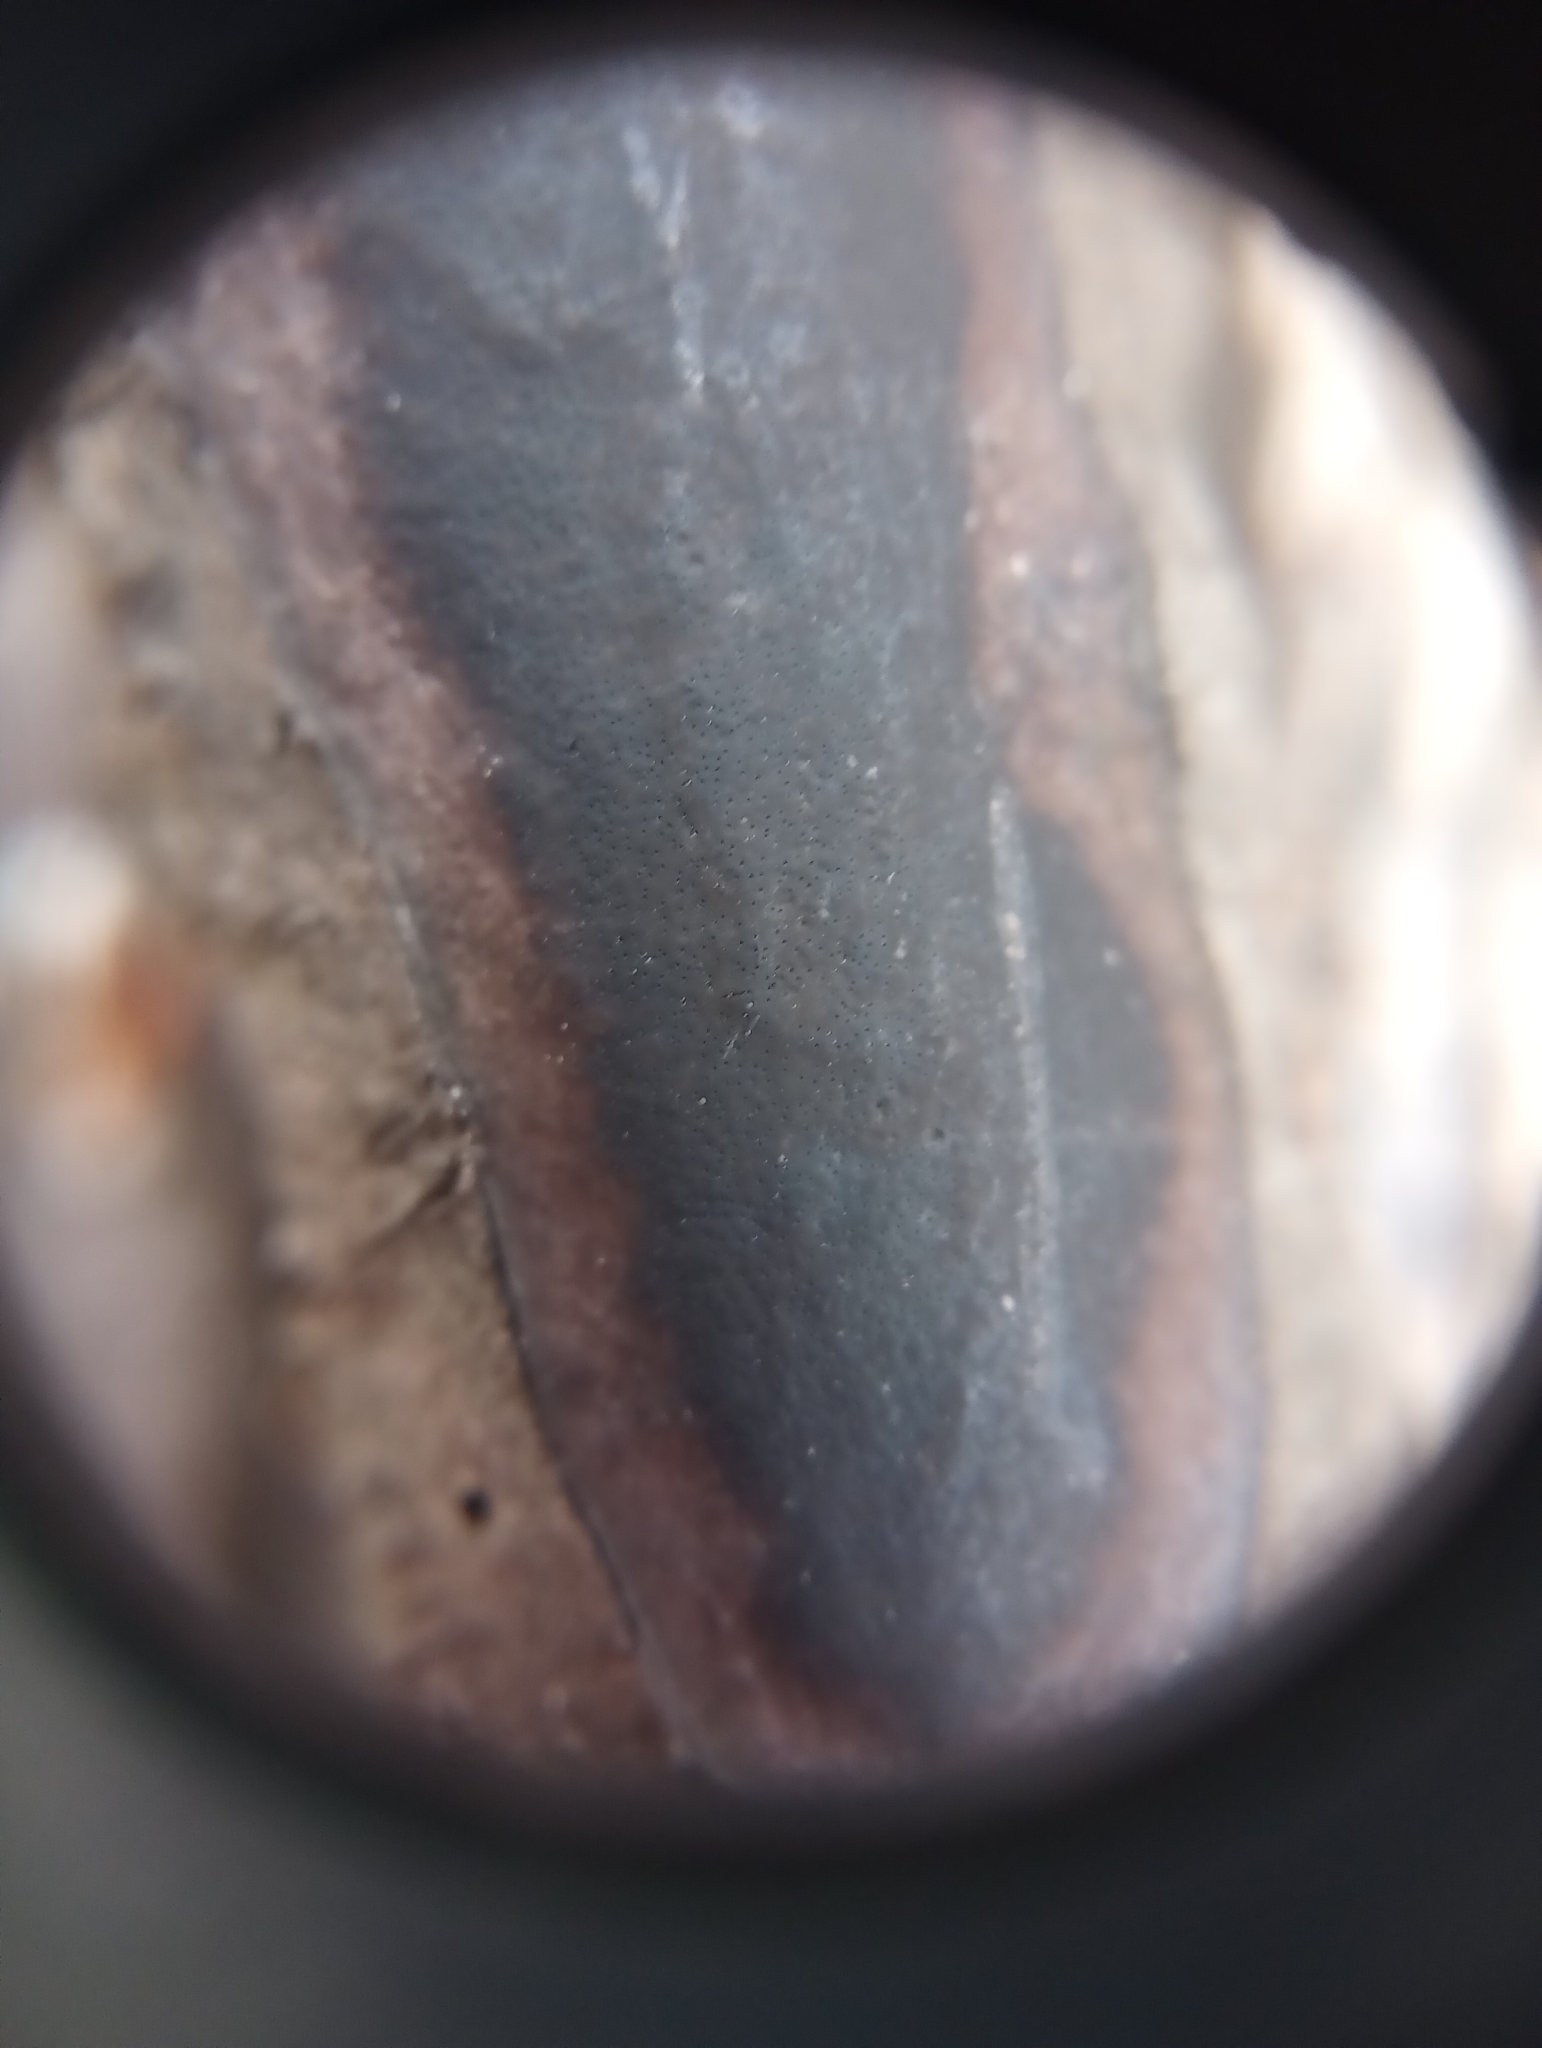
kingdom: Fungi
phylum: Ascomycota
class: Sordariomycetes
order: Xylariales
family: Graphostromataceae
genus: Camillea
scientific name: Camillea punctulata
